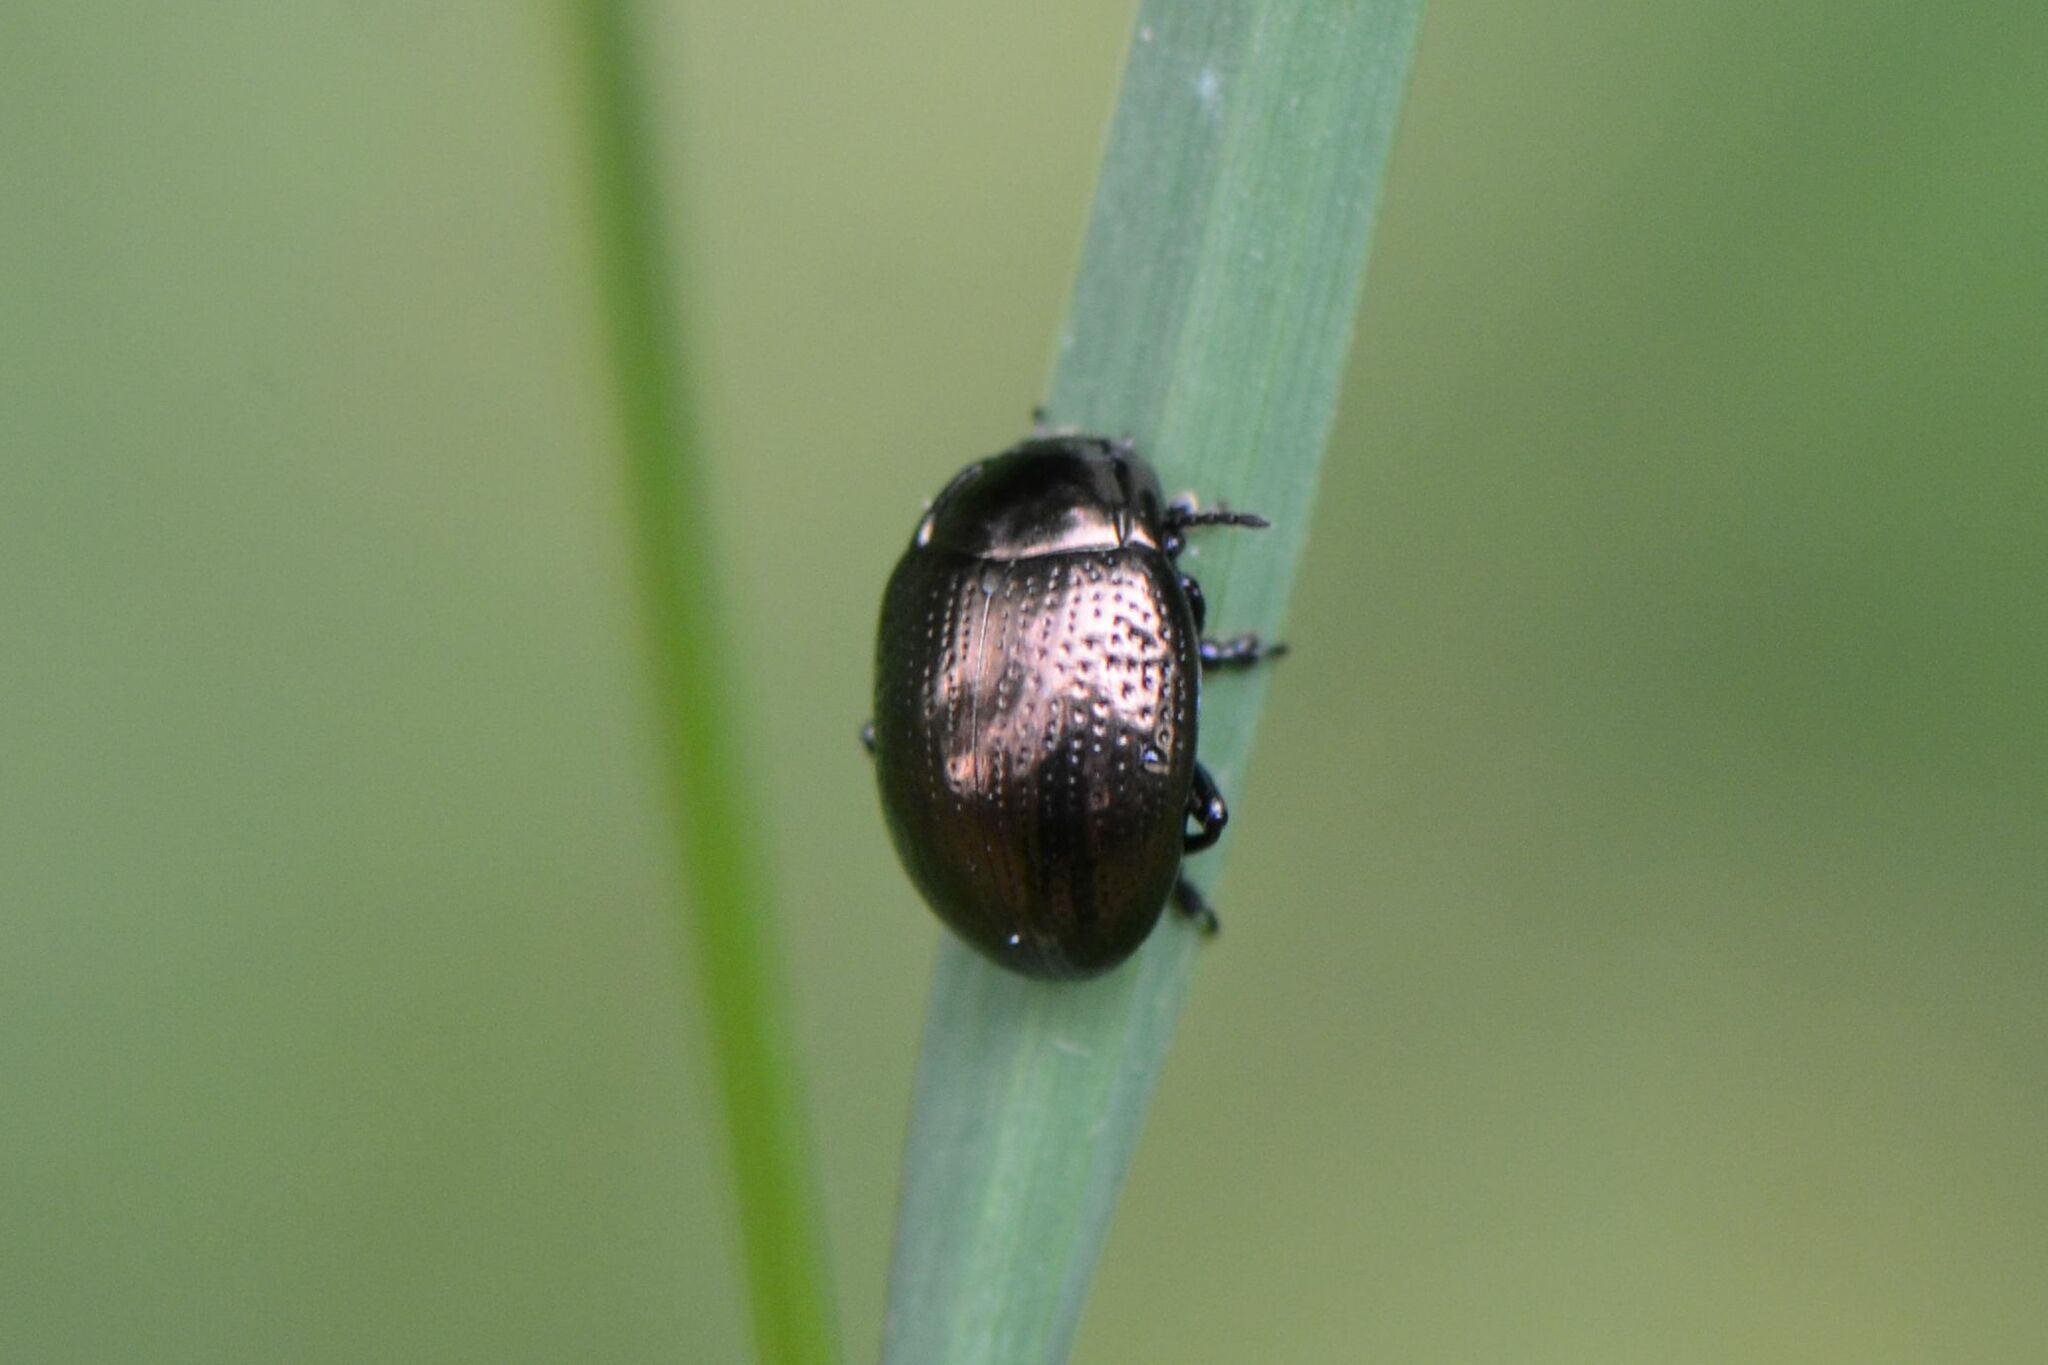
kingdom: Animalia
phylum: Arthropoda
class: Insecta
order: Coleoptera
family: Chrysomelidae
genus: Chrysolina
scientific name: Chrysolina oricalcia
